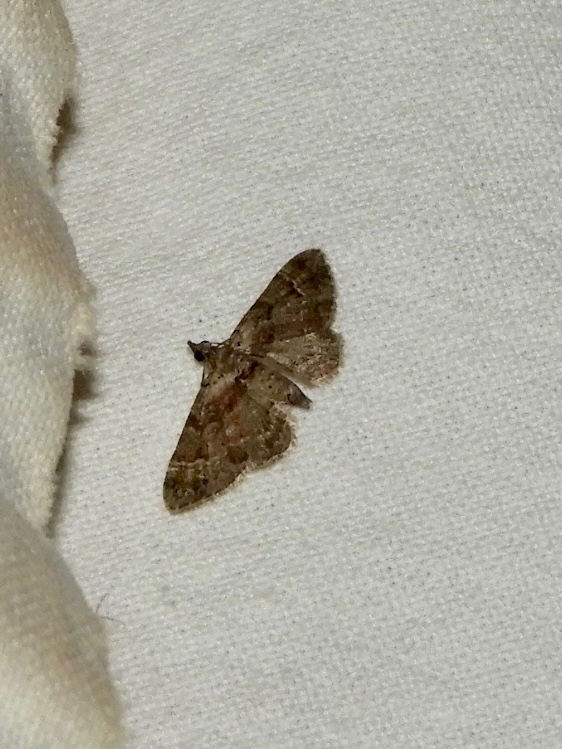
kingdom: Animalia
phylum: Arthropoda
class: Insecta
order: Lepidoptera
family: Geometridae
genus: Gymnoscelis
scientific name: Gymnoscelis rufifasciata
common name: Double-striped pug
